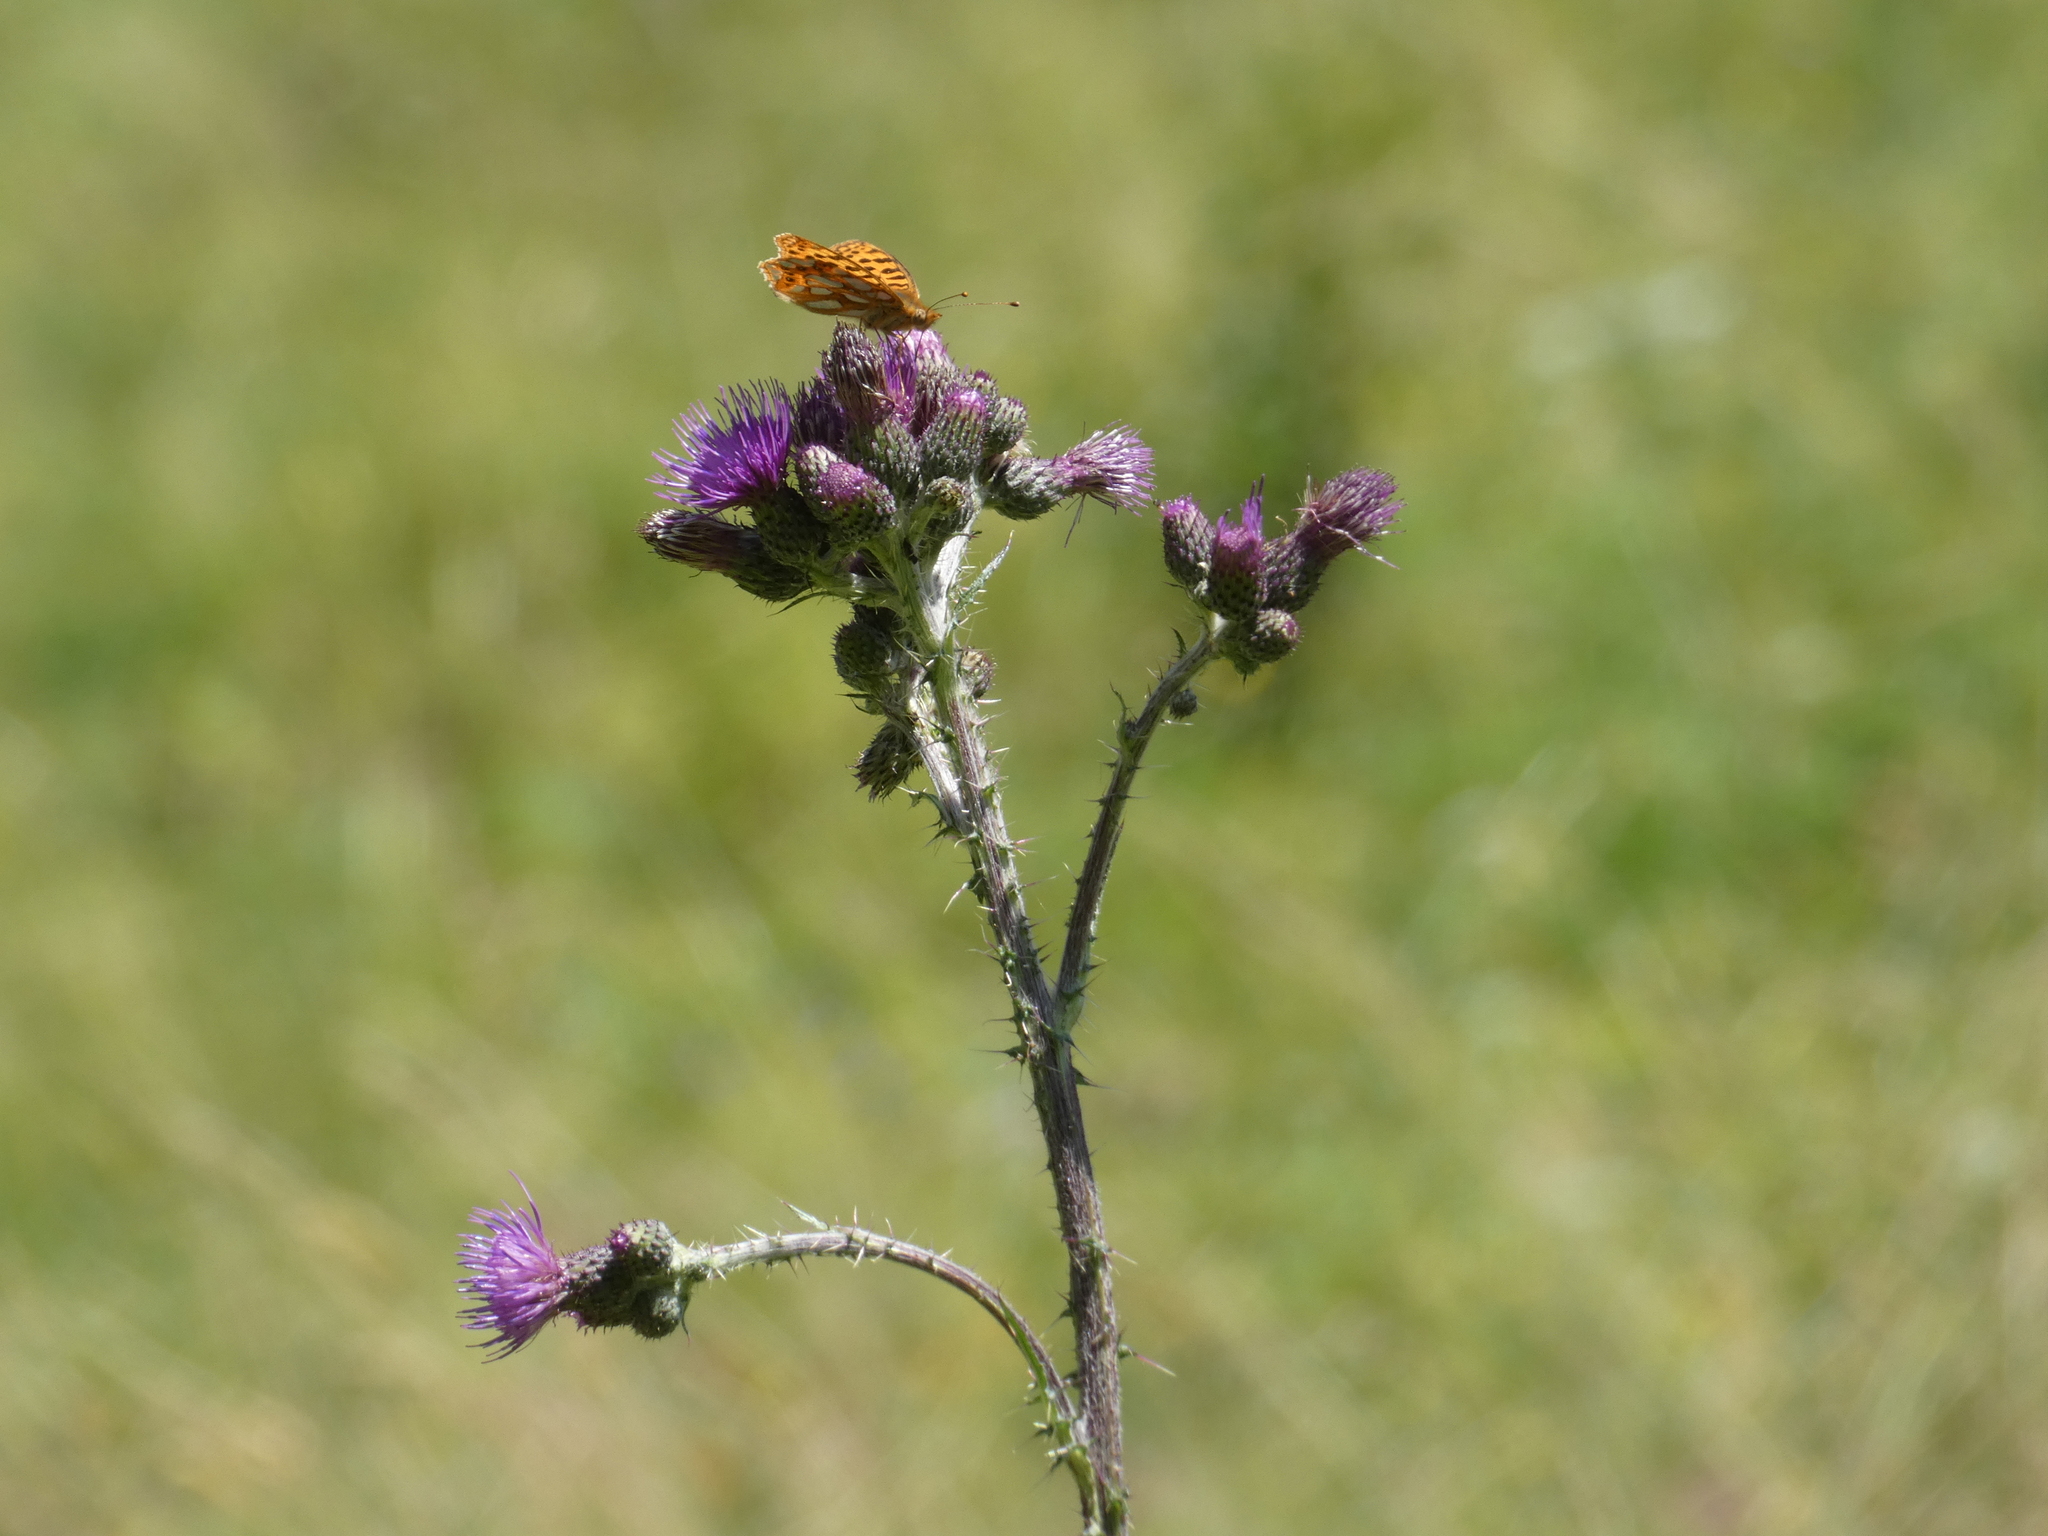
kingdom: Animalia
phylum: Arthropoda
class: Insecta
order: Lepidoptera
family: Nymphalidae
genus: Issoria
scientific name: Issoria lathonia
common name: Queen of spain fritillary
